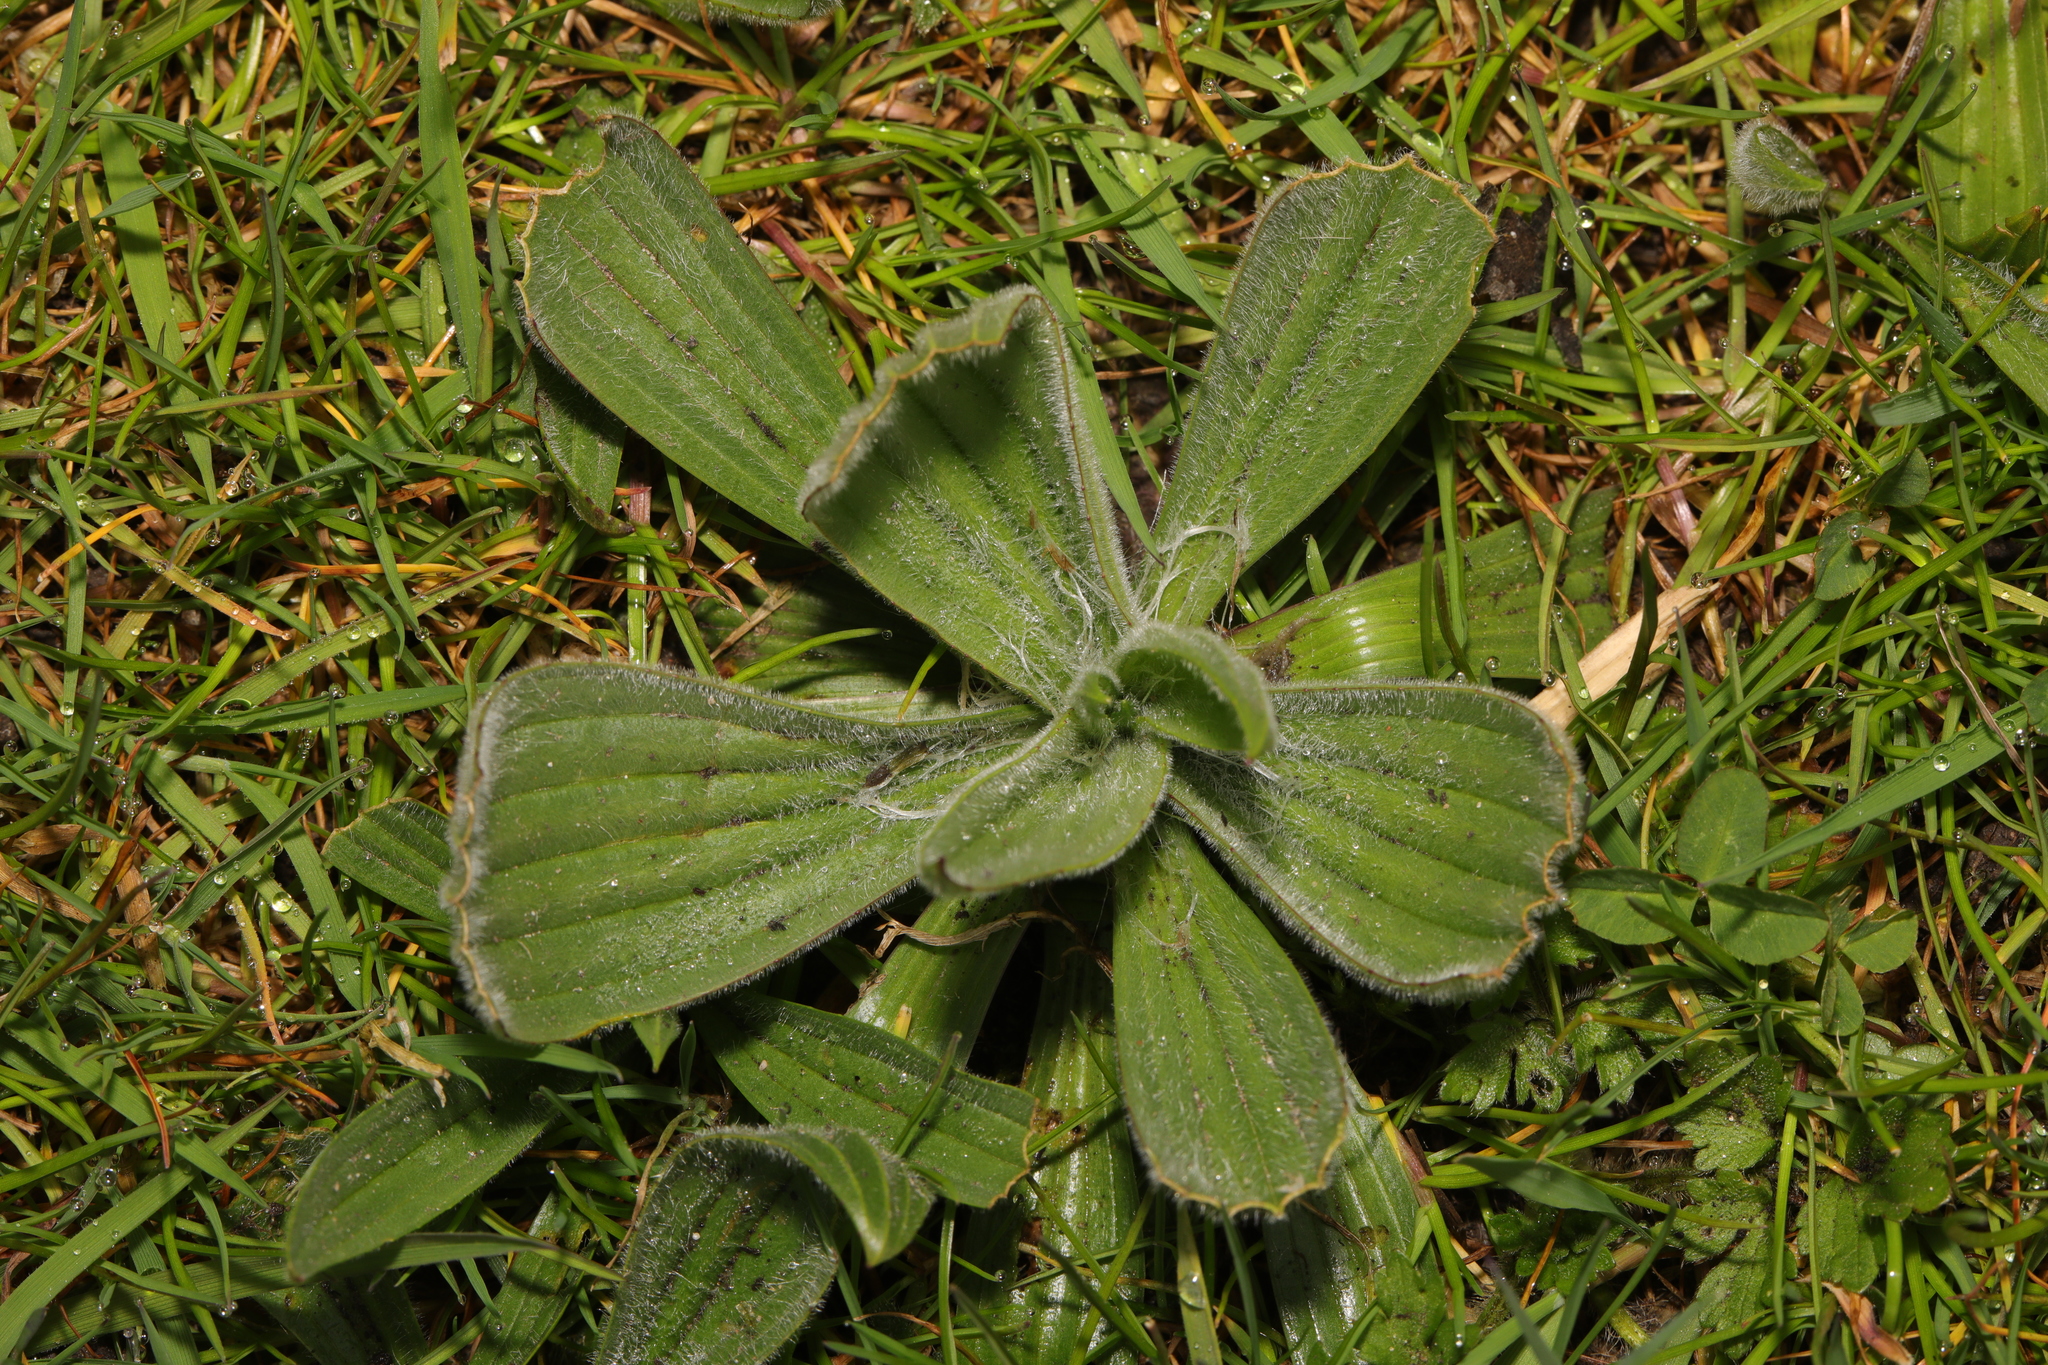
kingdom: Plantae
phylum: Tracheophyta
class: Magnoliopsida
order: Lamiales
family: Plantaginaceae
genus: Plantago
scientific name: Plantago media
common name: Hoary plantain
